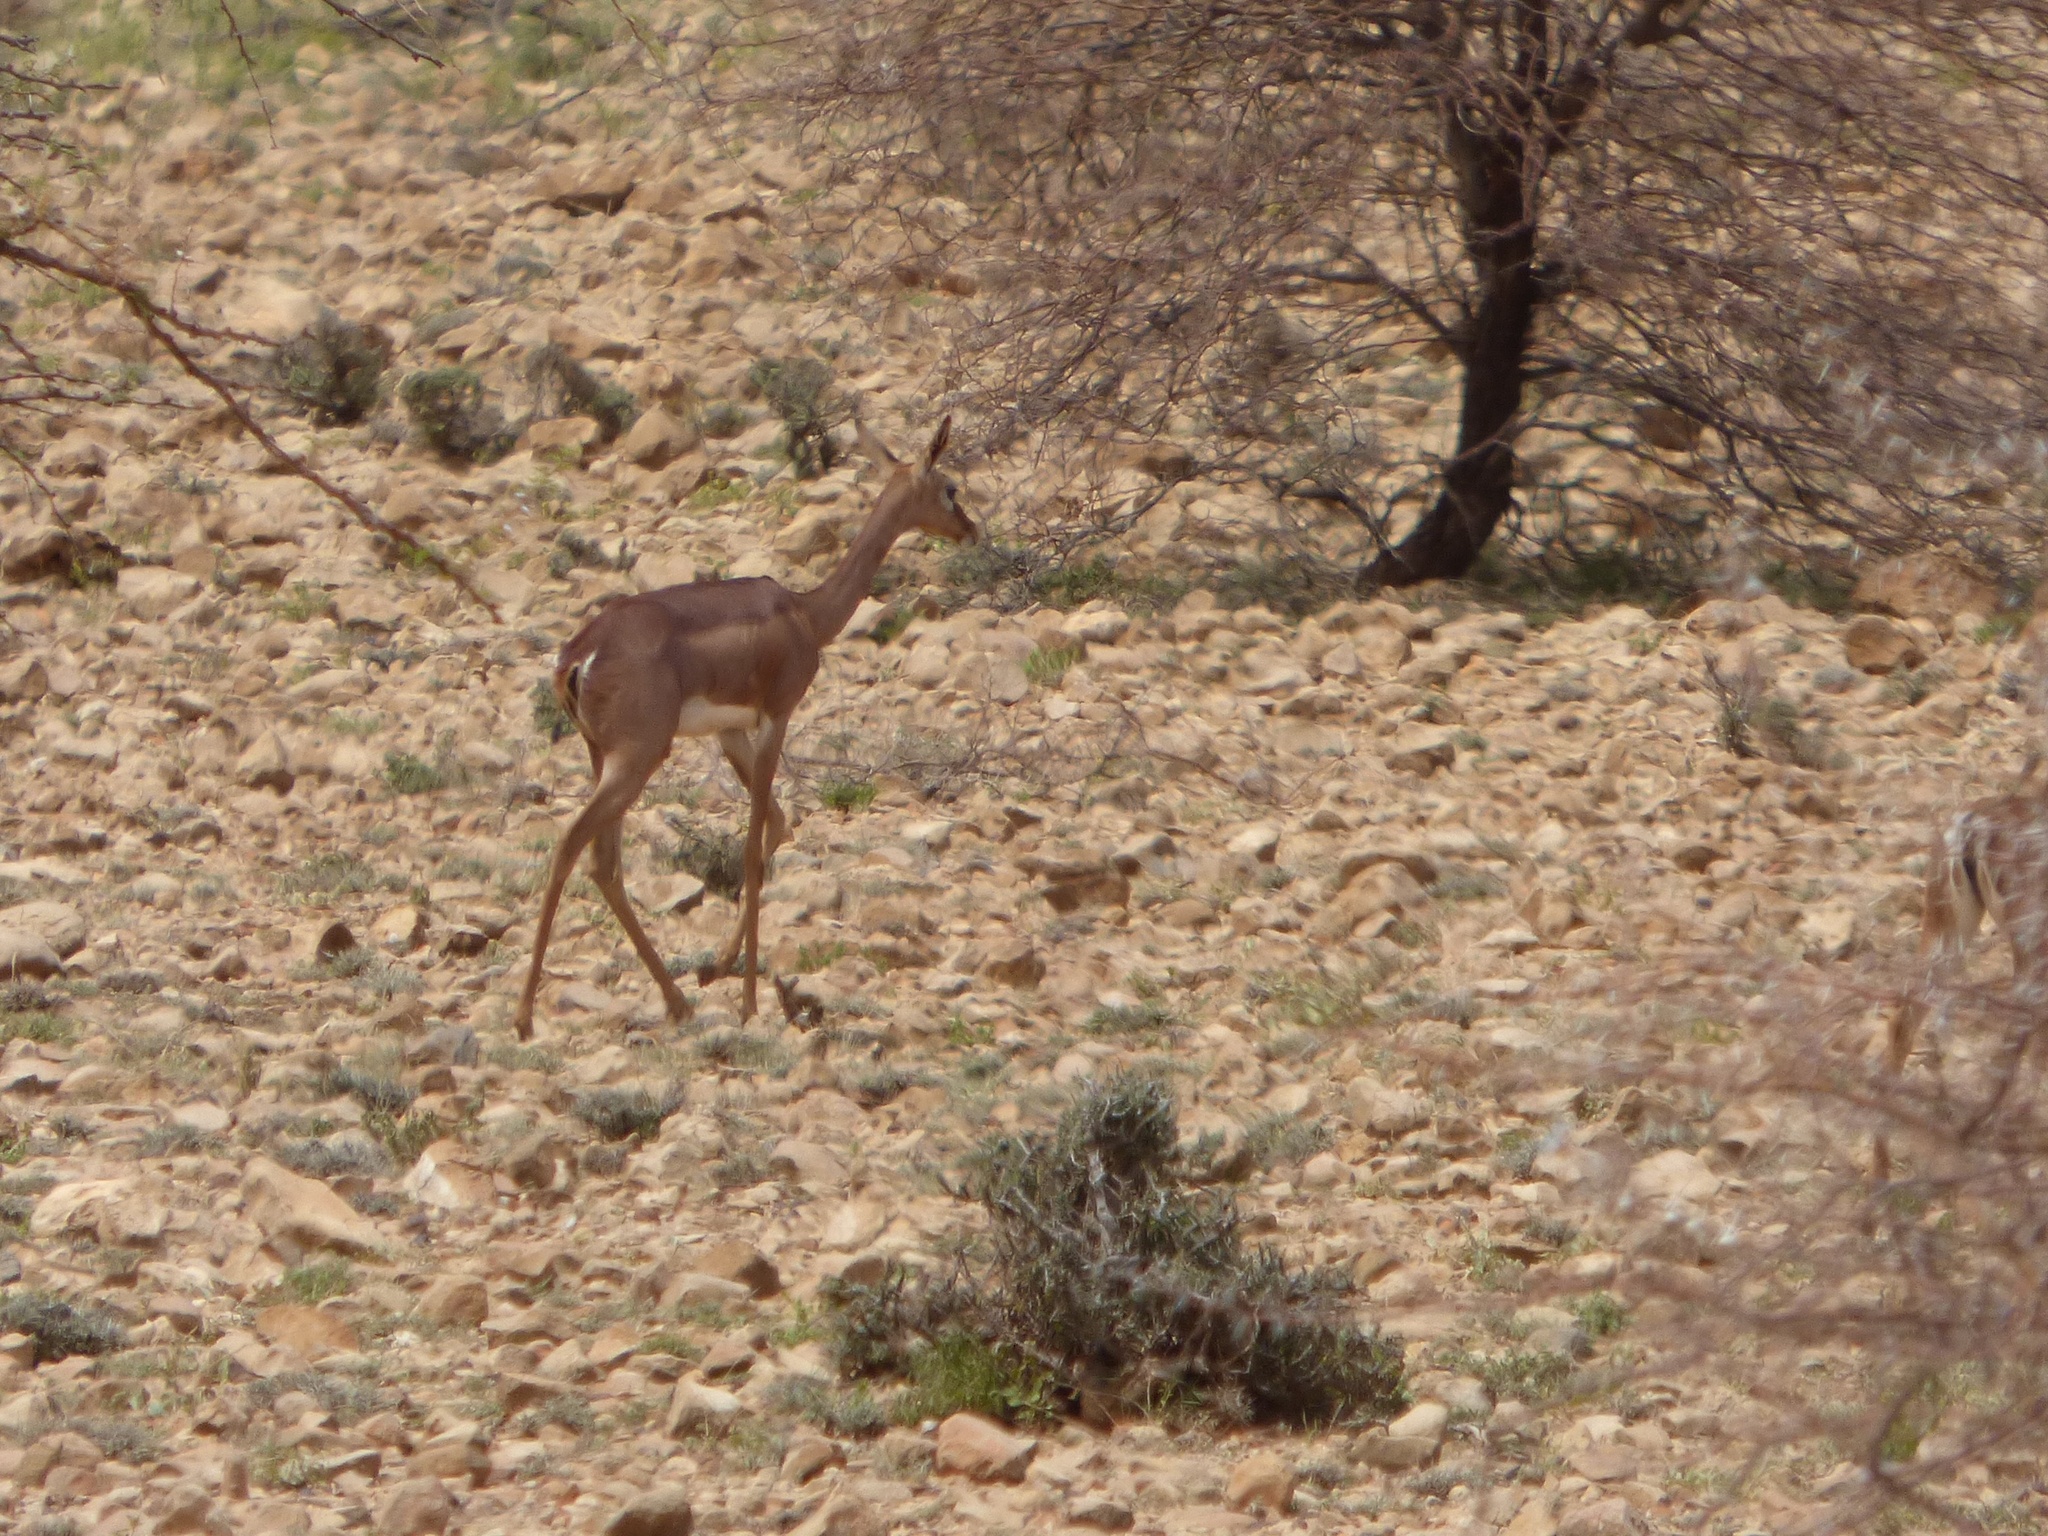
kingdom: Animalia
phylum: Chordata
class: Mammalia
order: Artiodactyla
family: Bovidae
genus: Litocranius
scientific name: Litocranius walleri
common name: Gerenuk
